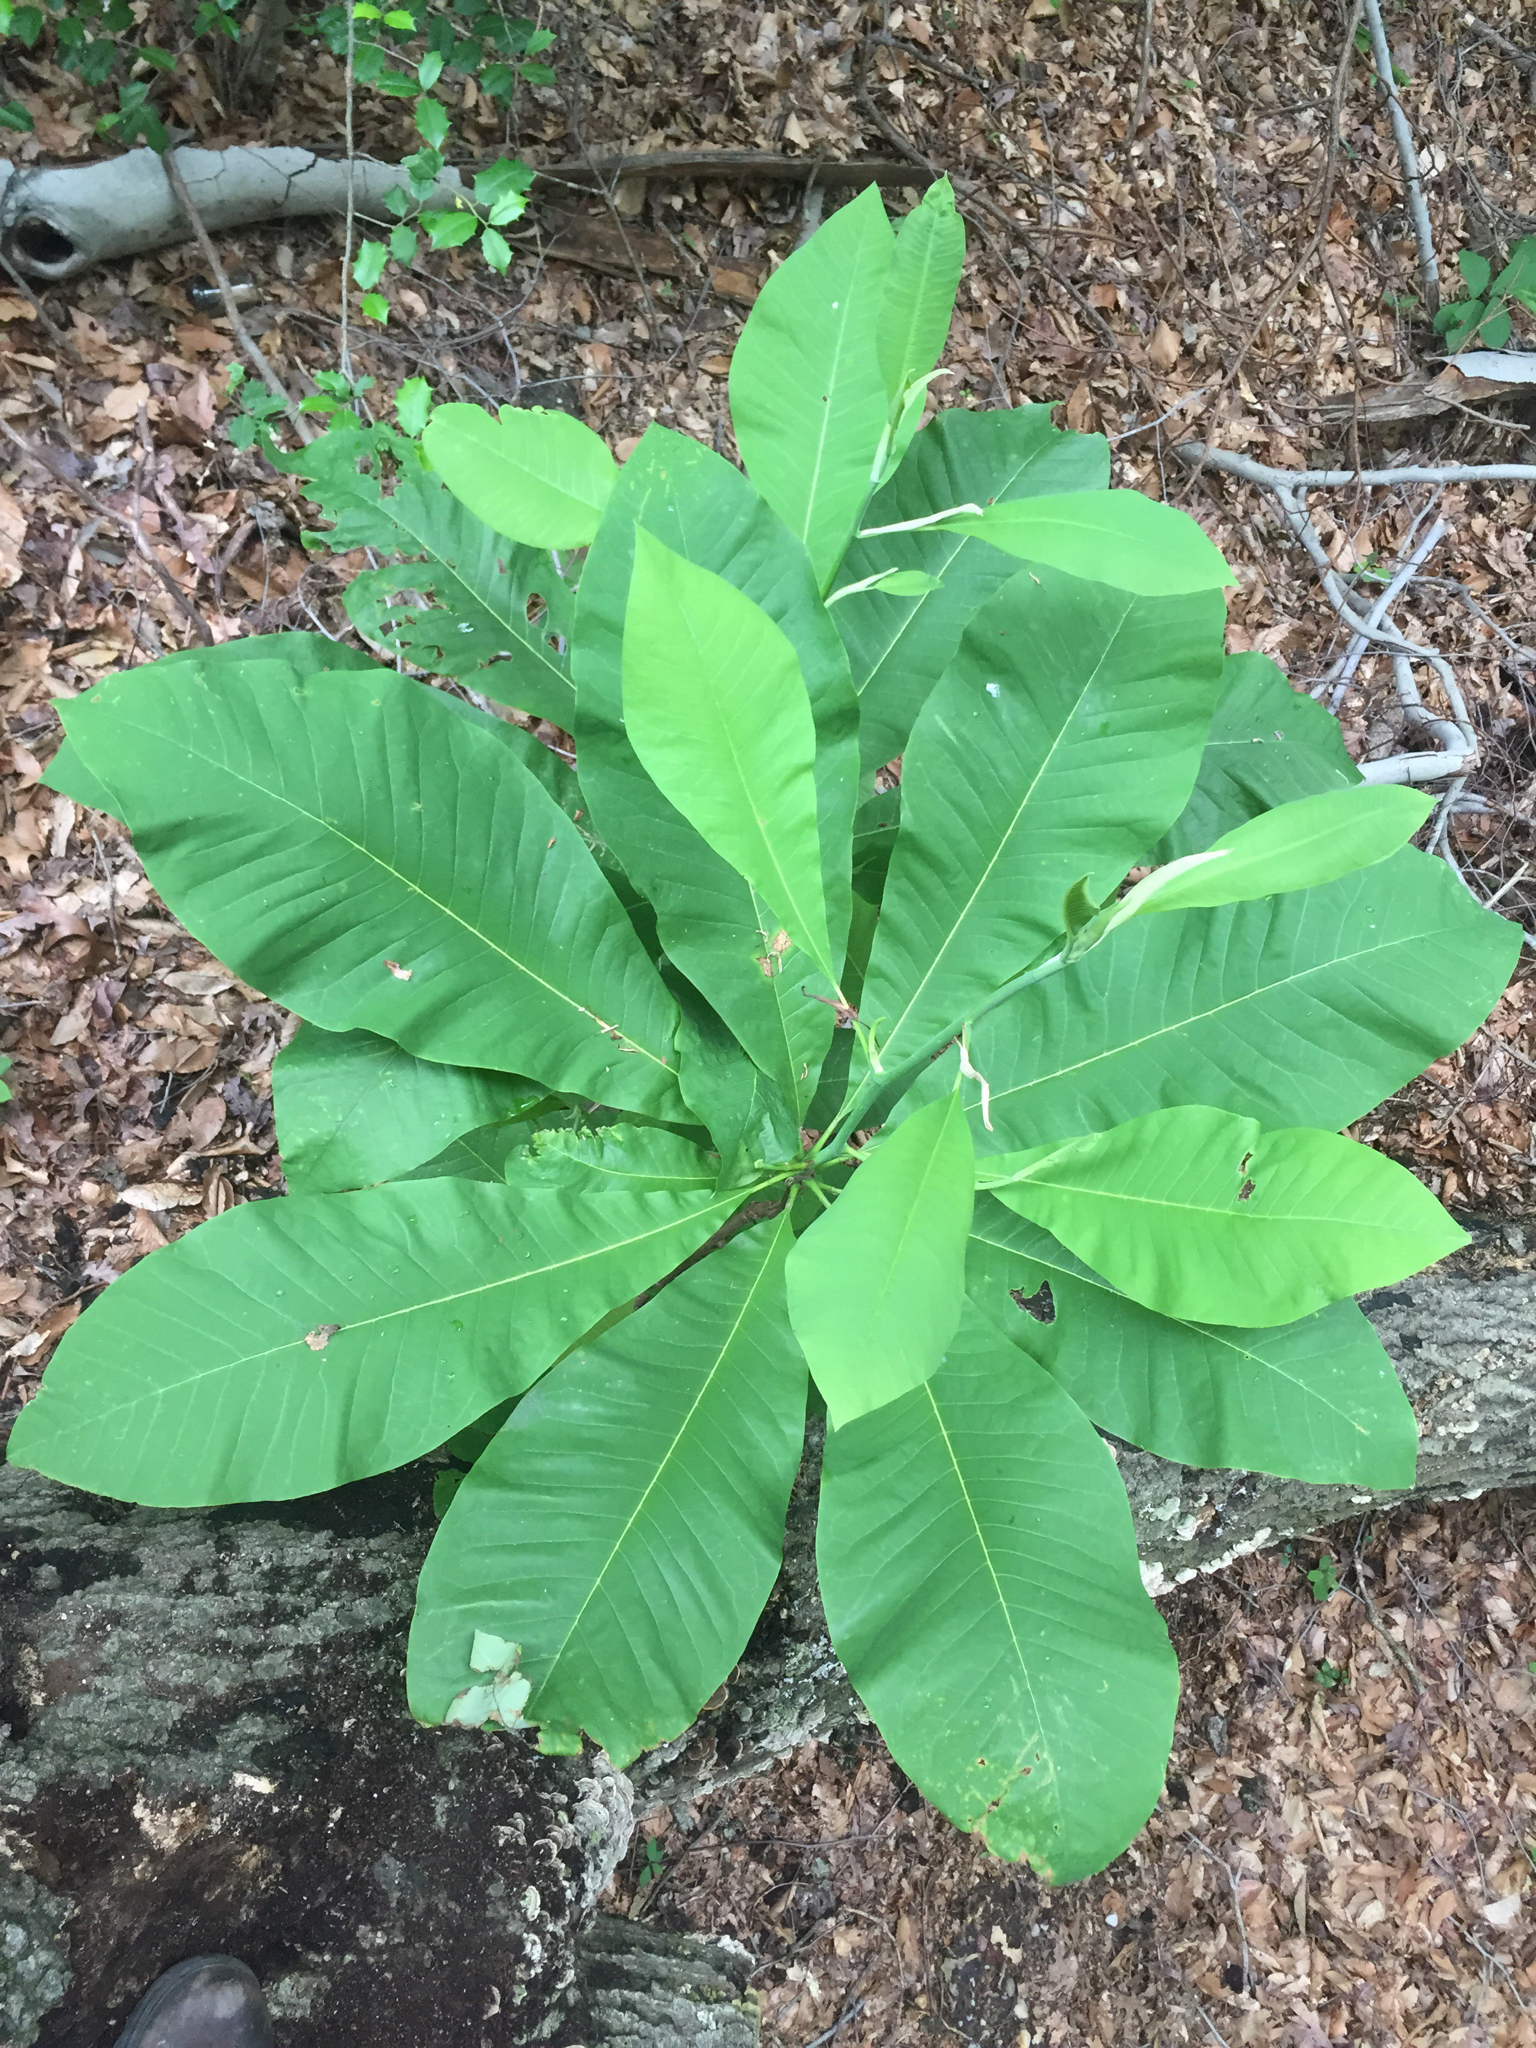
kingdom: Plantae
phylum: Tracheophyta
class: Magnoliopsida
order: Magnoliales
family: Magnoliaceae
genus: Magnolia
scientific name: Magnolia tripetala
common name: Umbrella magnolia
